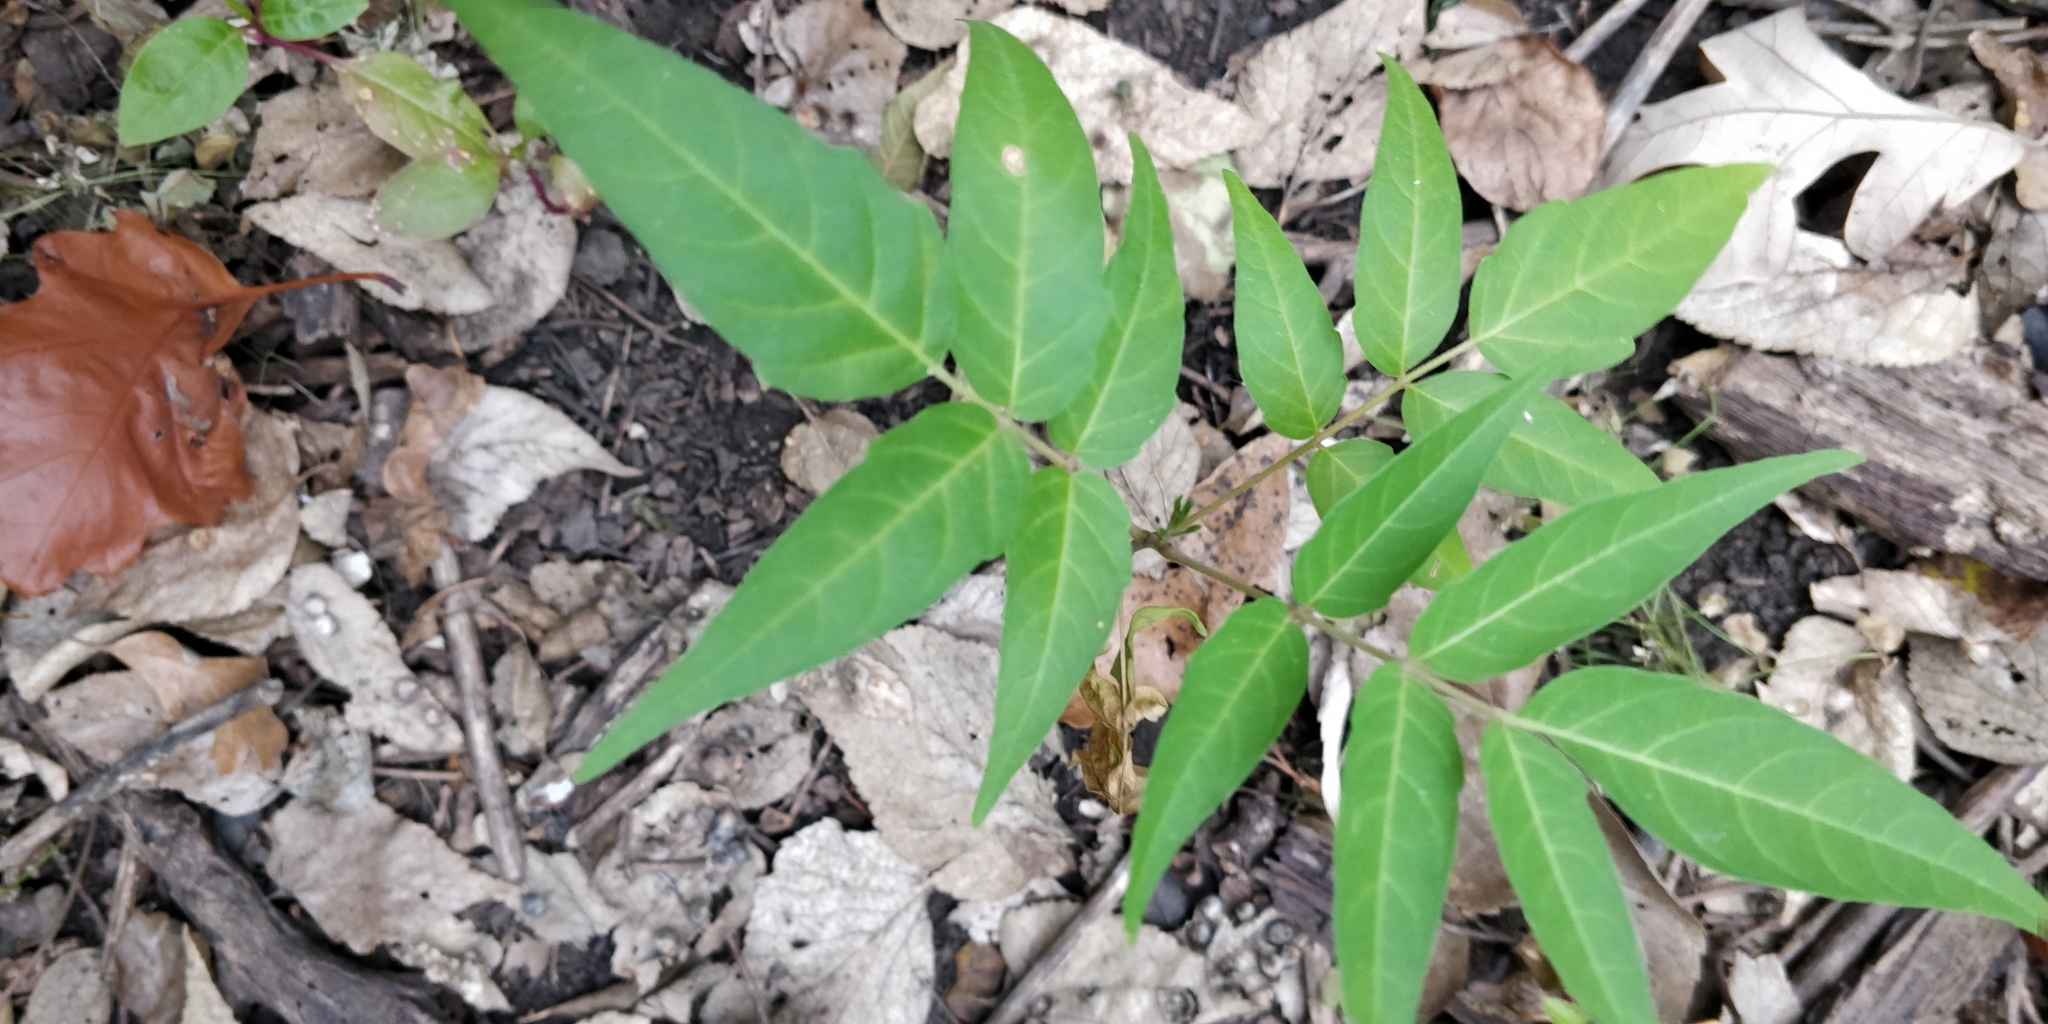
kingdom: Plantae
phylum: Tracheophyta
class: Magnoliopsida
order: Sapindales
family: Simaroubaceae
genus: Ailanthus
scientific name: Ailanthus altissima
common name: Tree-of-heaven
